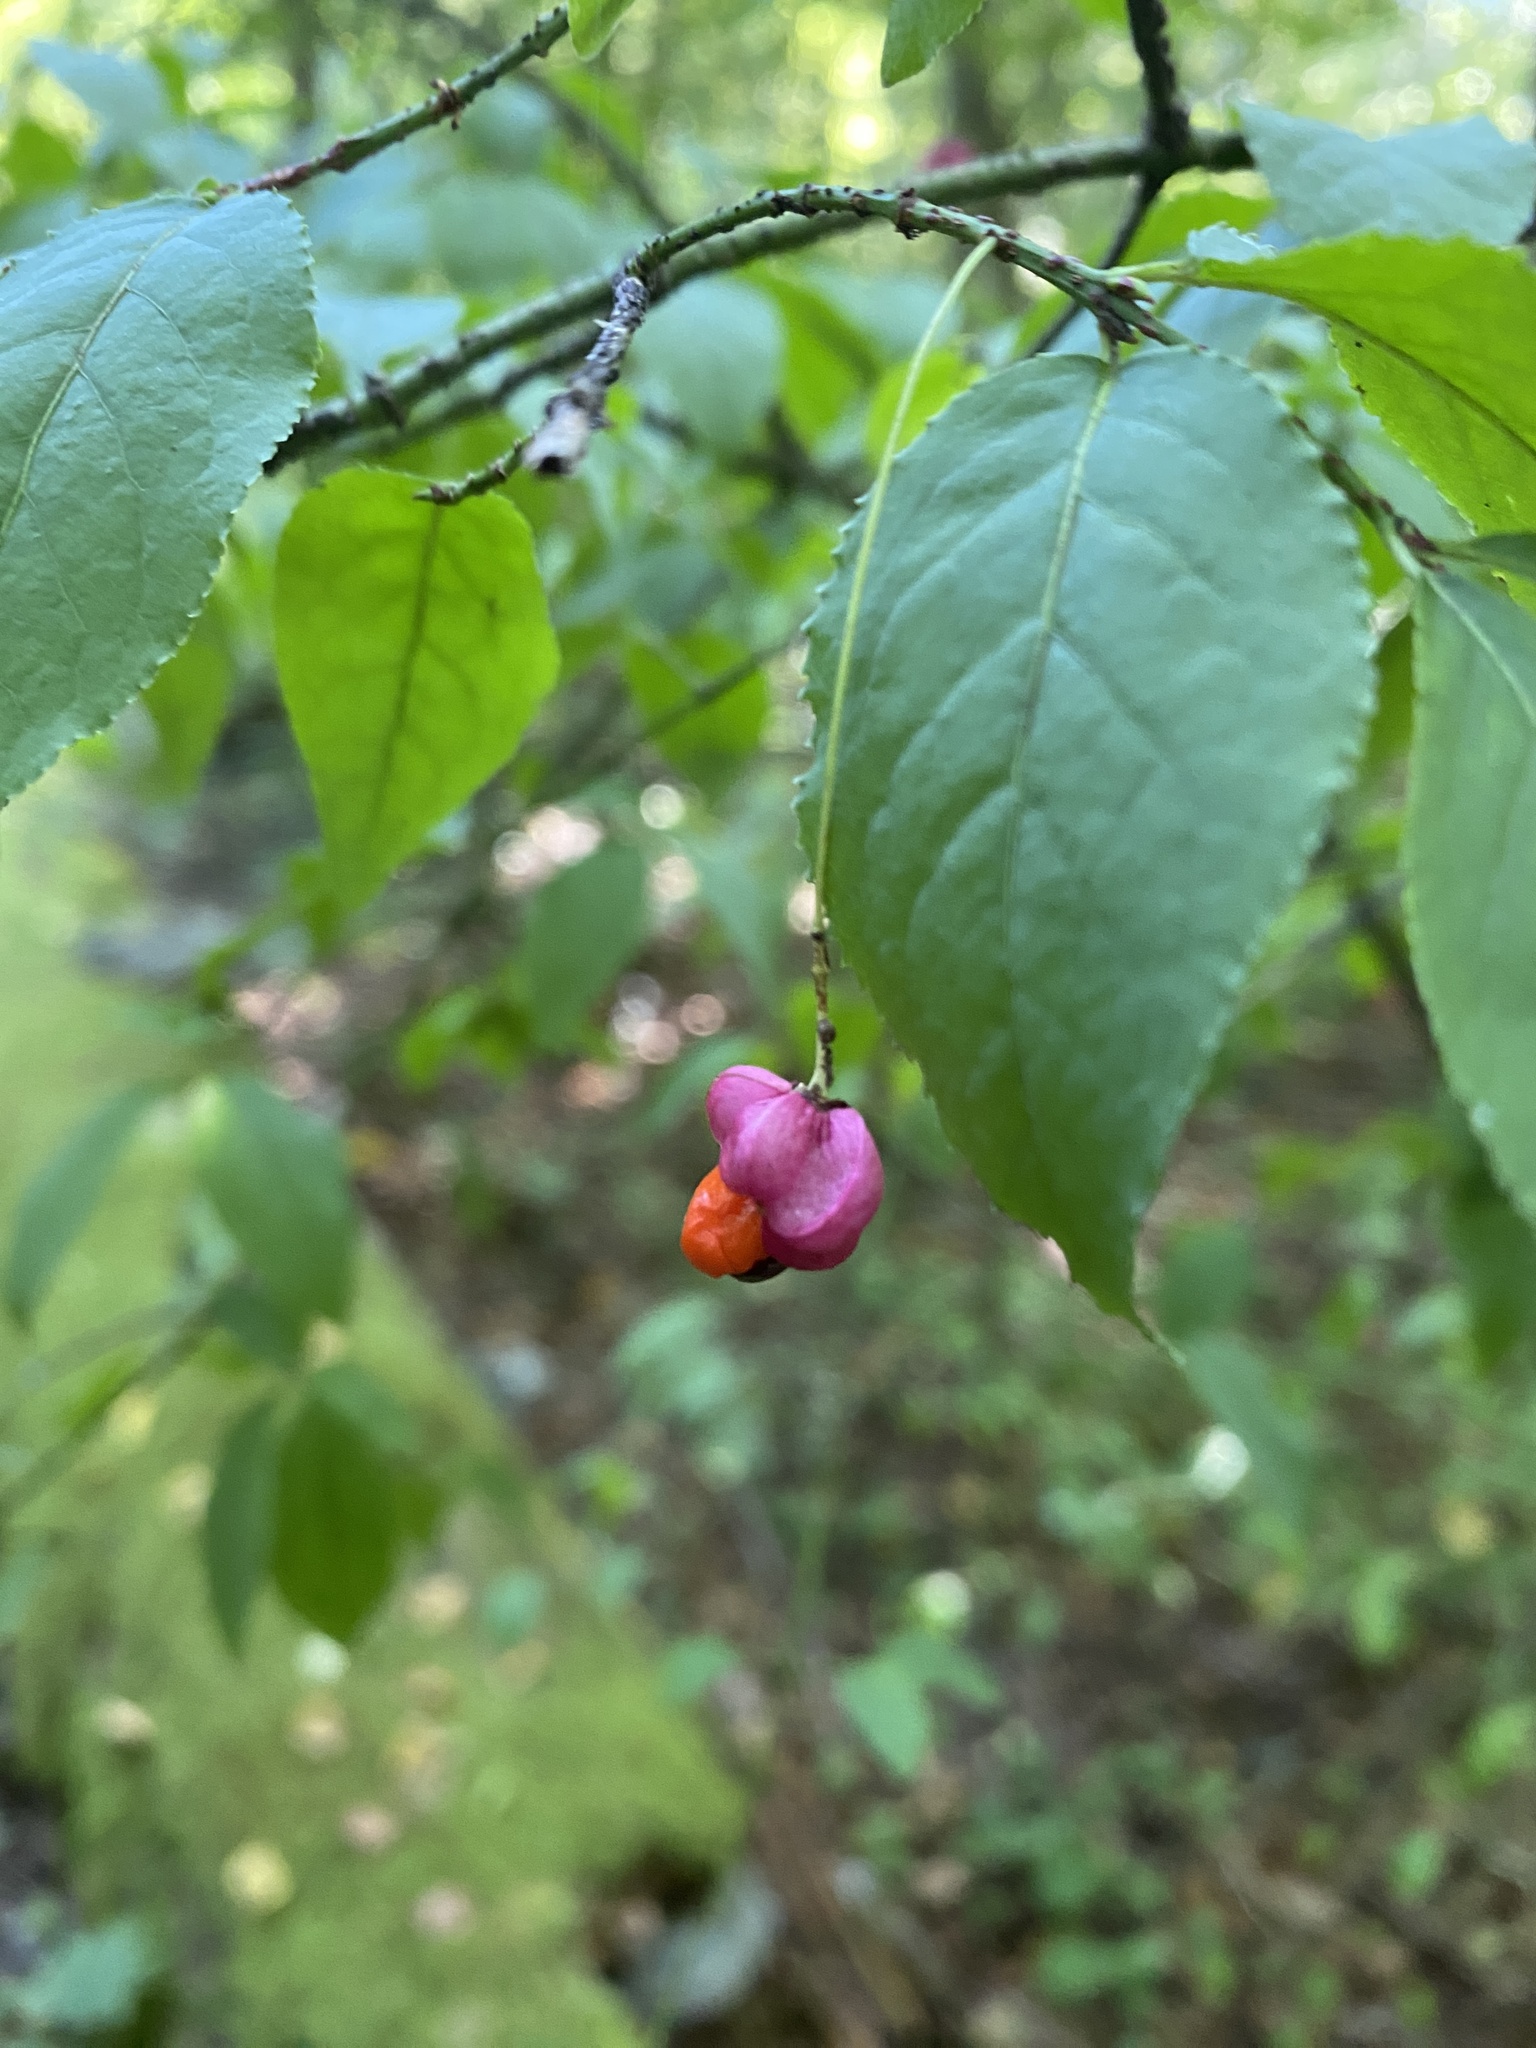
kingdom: Plantae
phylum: Tracheophyta
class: Magnoliopsida
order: Celastrales
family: Celastraceae
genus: Euonymus
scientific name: Euonymus verrucosus
